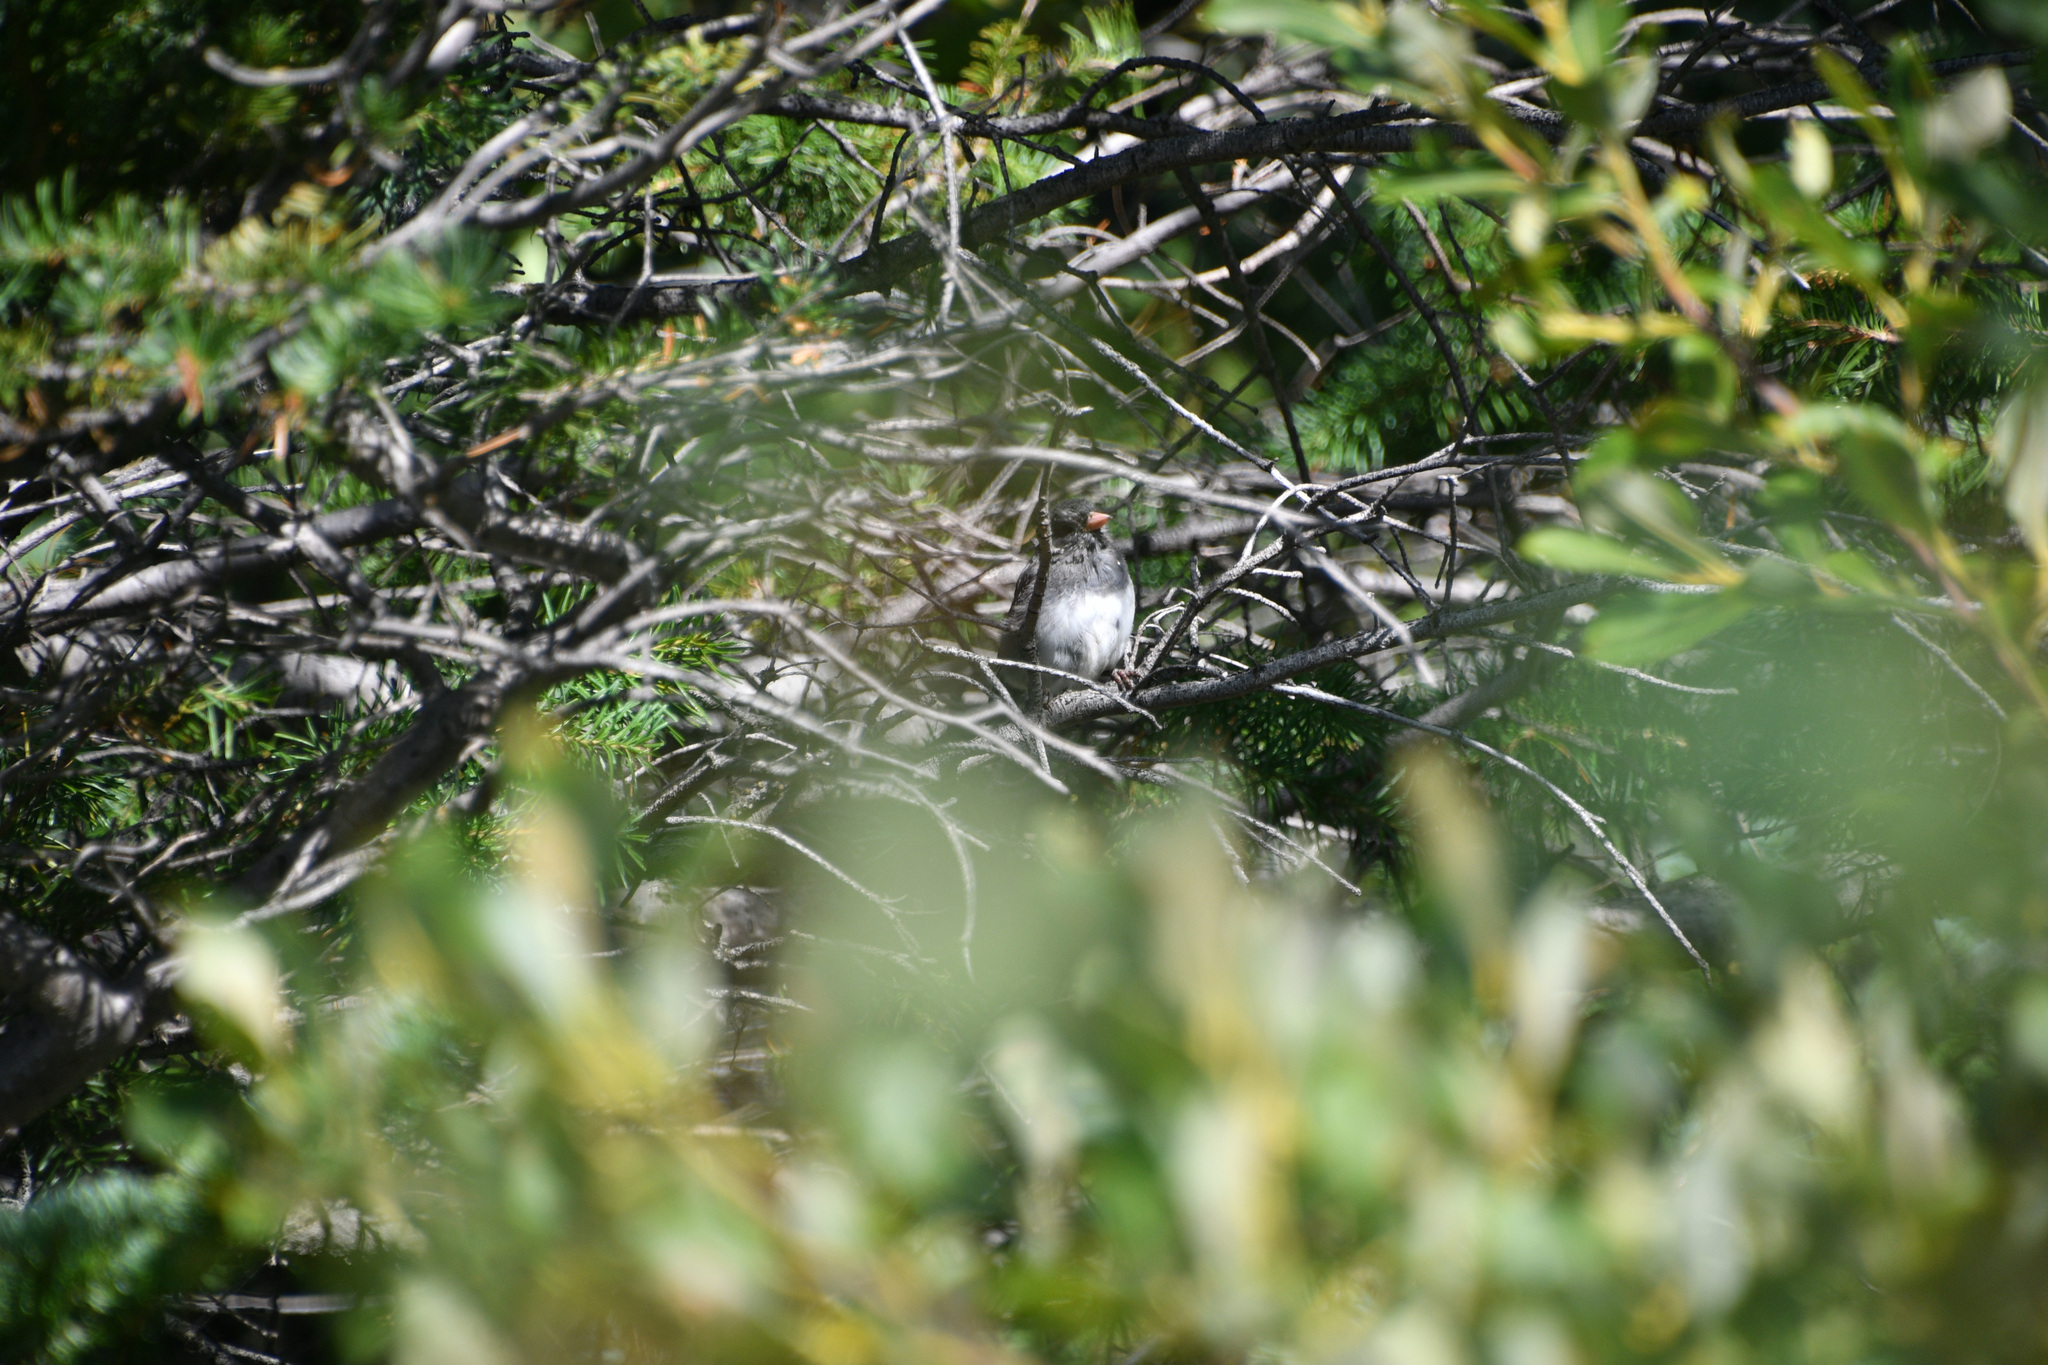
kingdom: Animalia
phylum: Chordata
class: Aves
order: Passeriformes
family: Passerellidae
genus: Junco
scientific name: Junco hyemalis
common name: Dark-eyed junco
